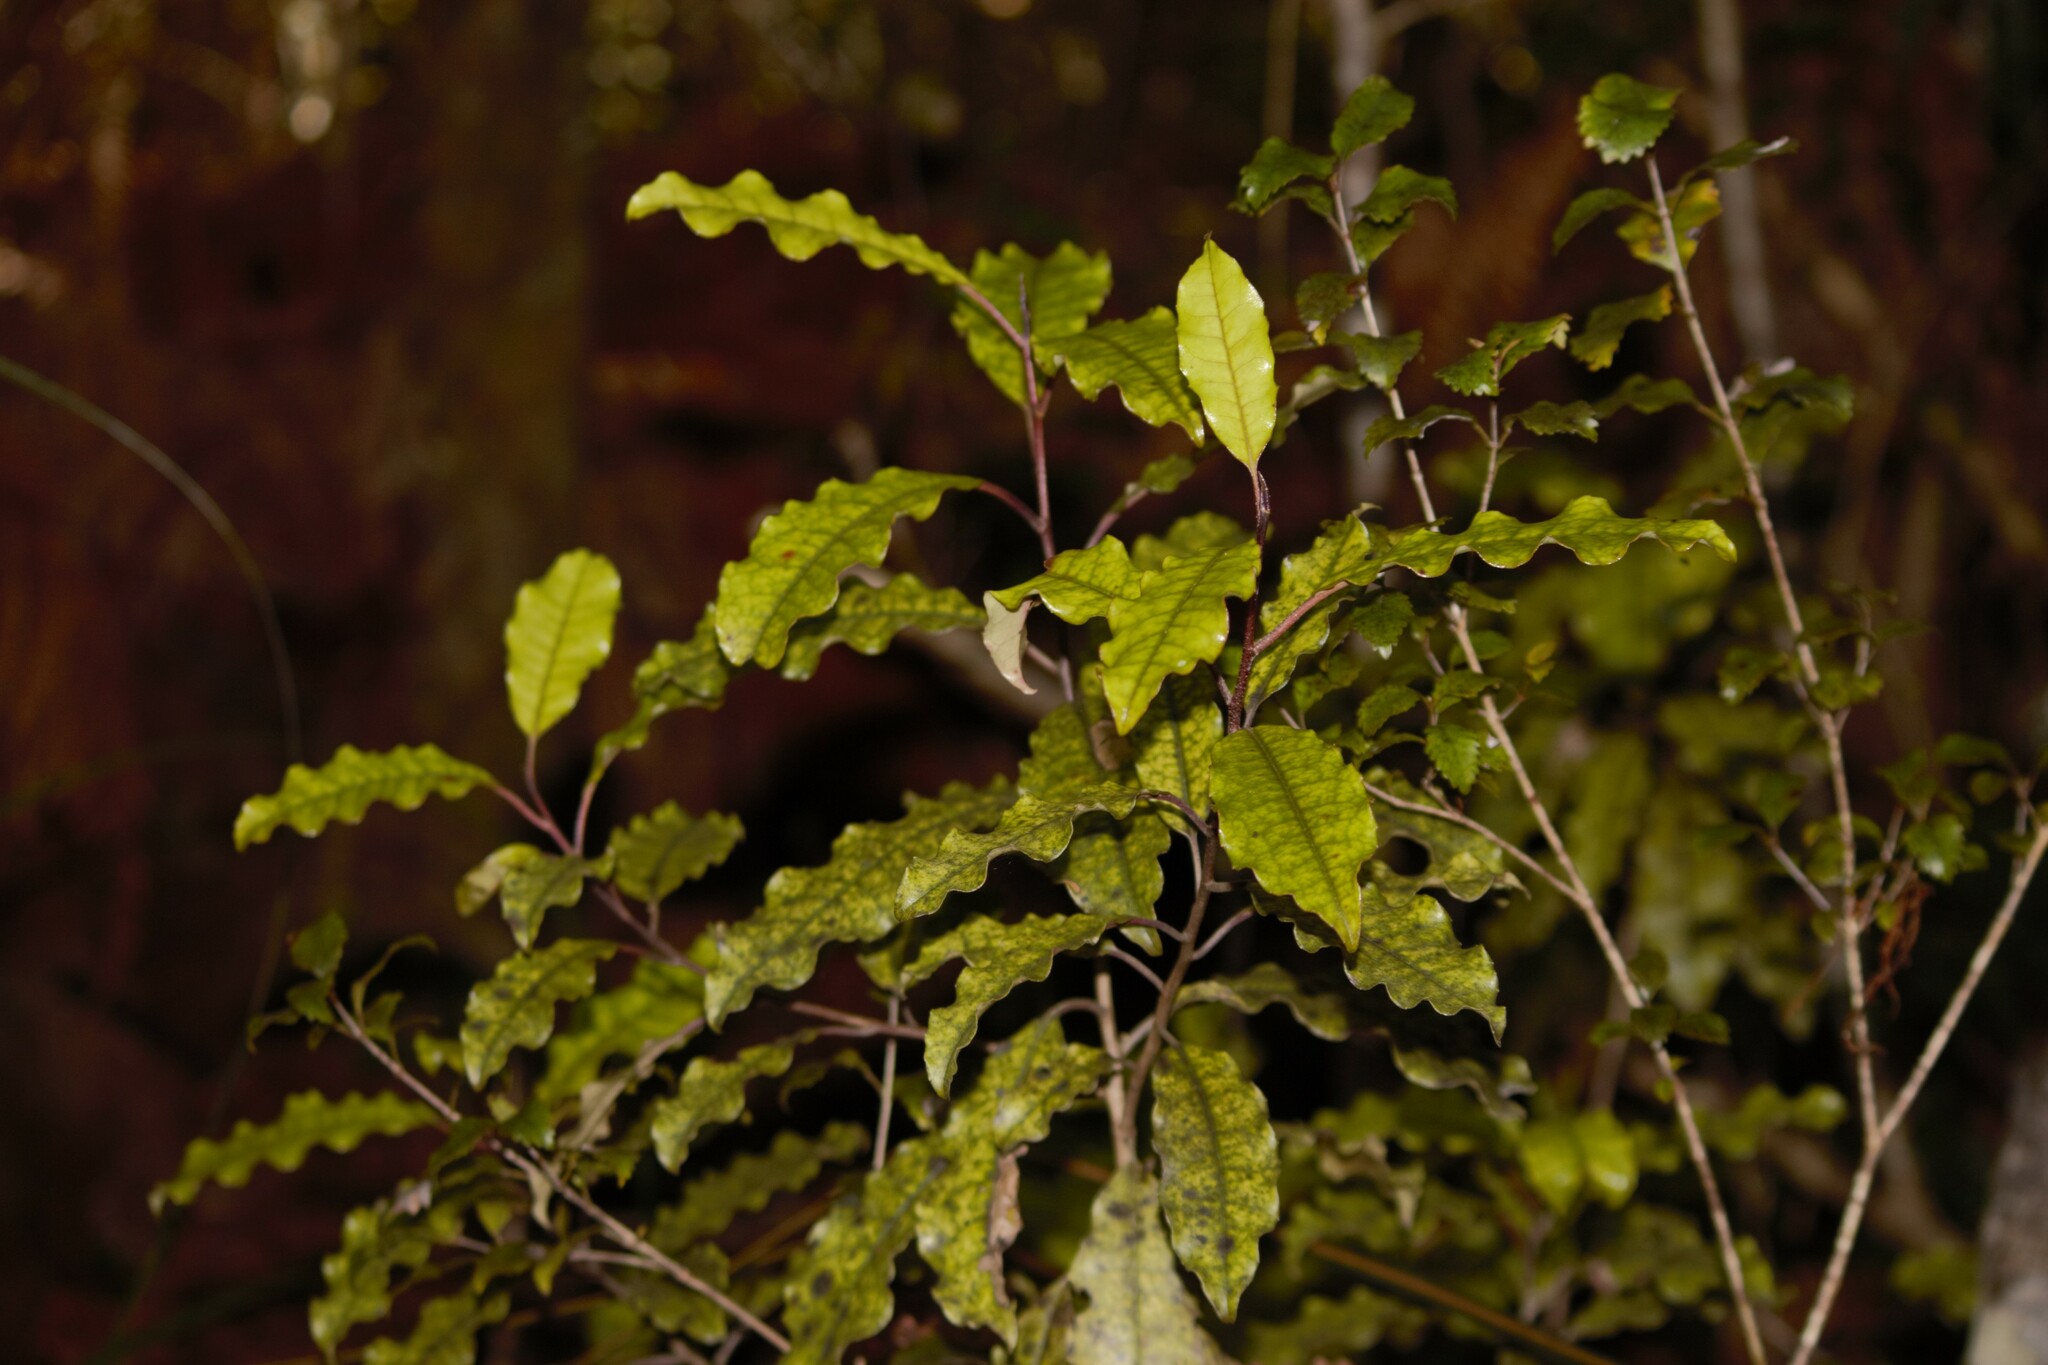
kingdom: Plantae
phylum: Tracheophyta
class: Magnoliopsida
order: Paracryphiales
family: Paracryphiaceae
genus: Quintinia
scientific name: Quintinia serrata
